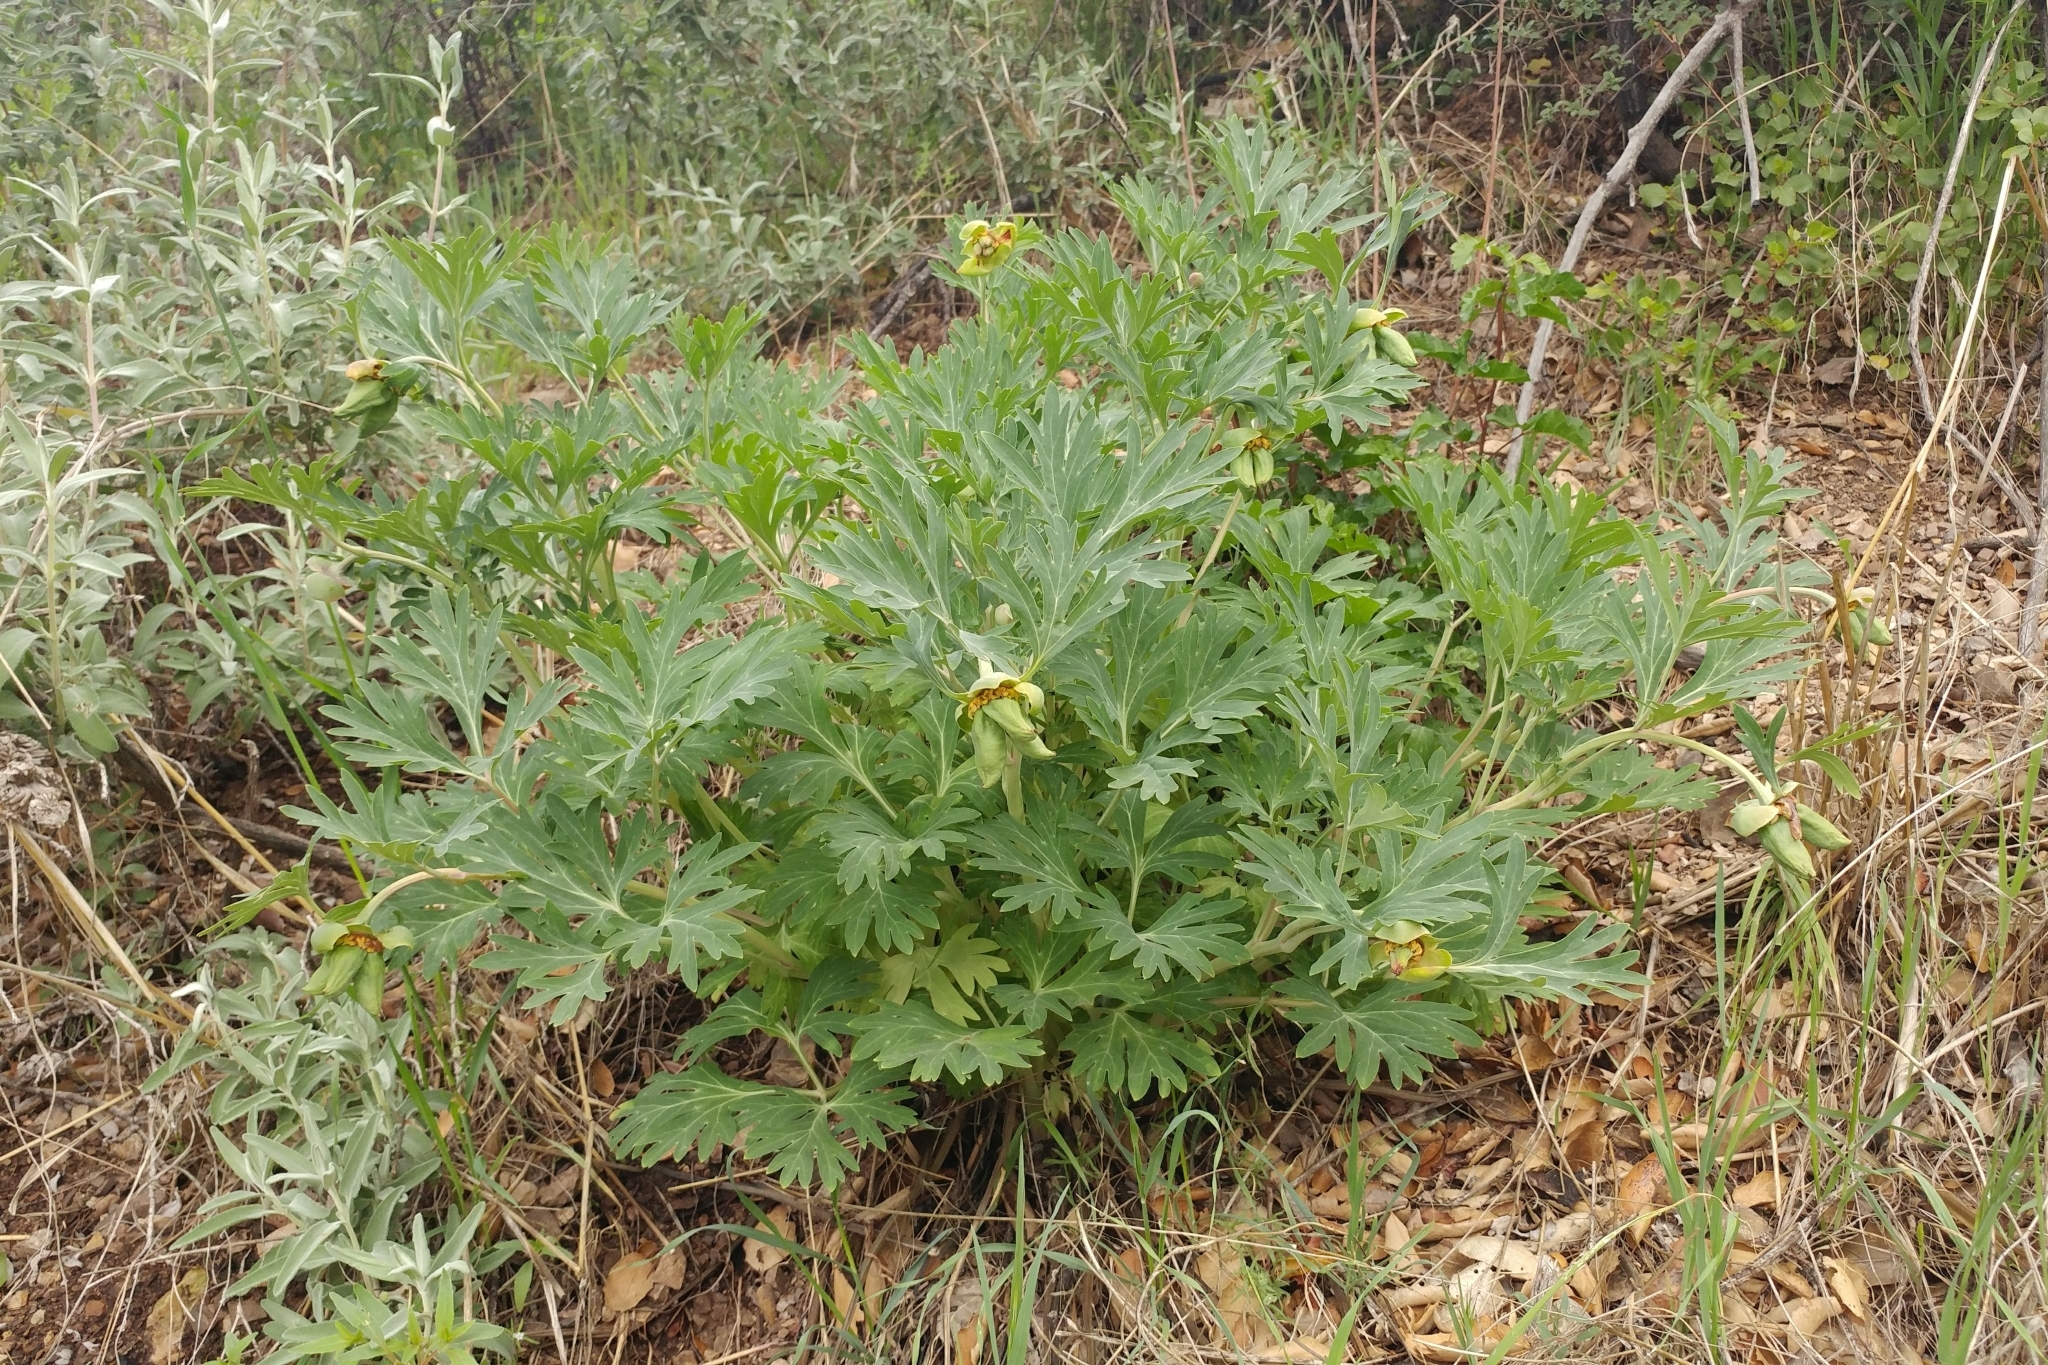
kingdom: Plantae
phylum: Tracheophyta
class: Magnoliopsida
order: Saxifragales
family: Paeoniaceae
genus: Paeonia
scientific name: Paeonia californica
